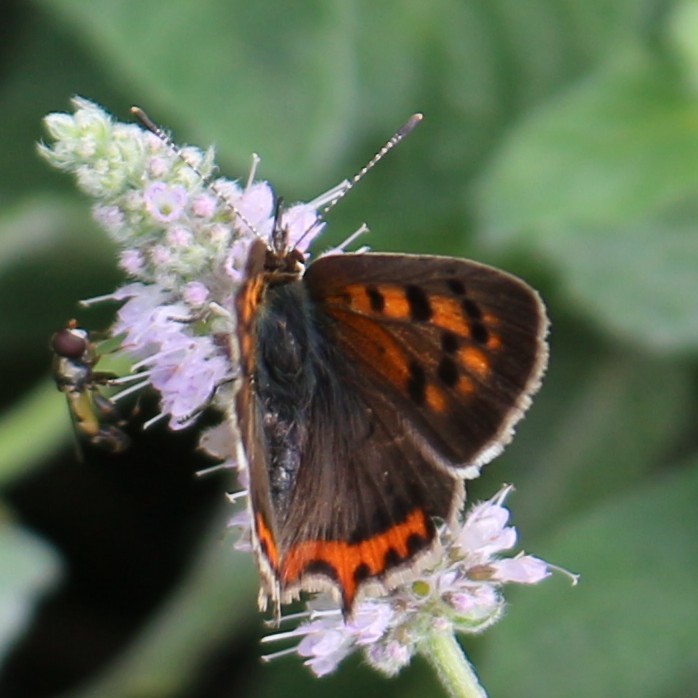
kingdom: Animalia
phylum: Arthropoda
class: Insecta
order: Lepidoptera
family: Lycaenidae
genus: Lycaena
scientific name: Lycaena phlaeas
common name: Small copper
